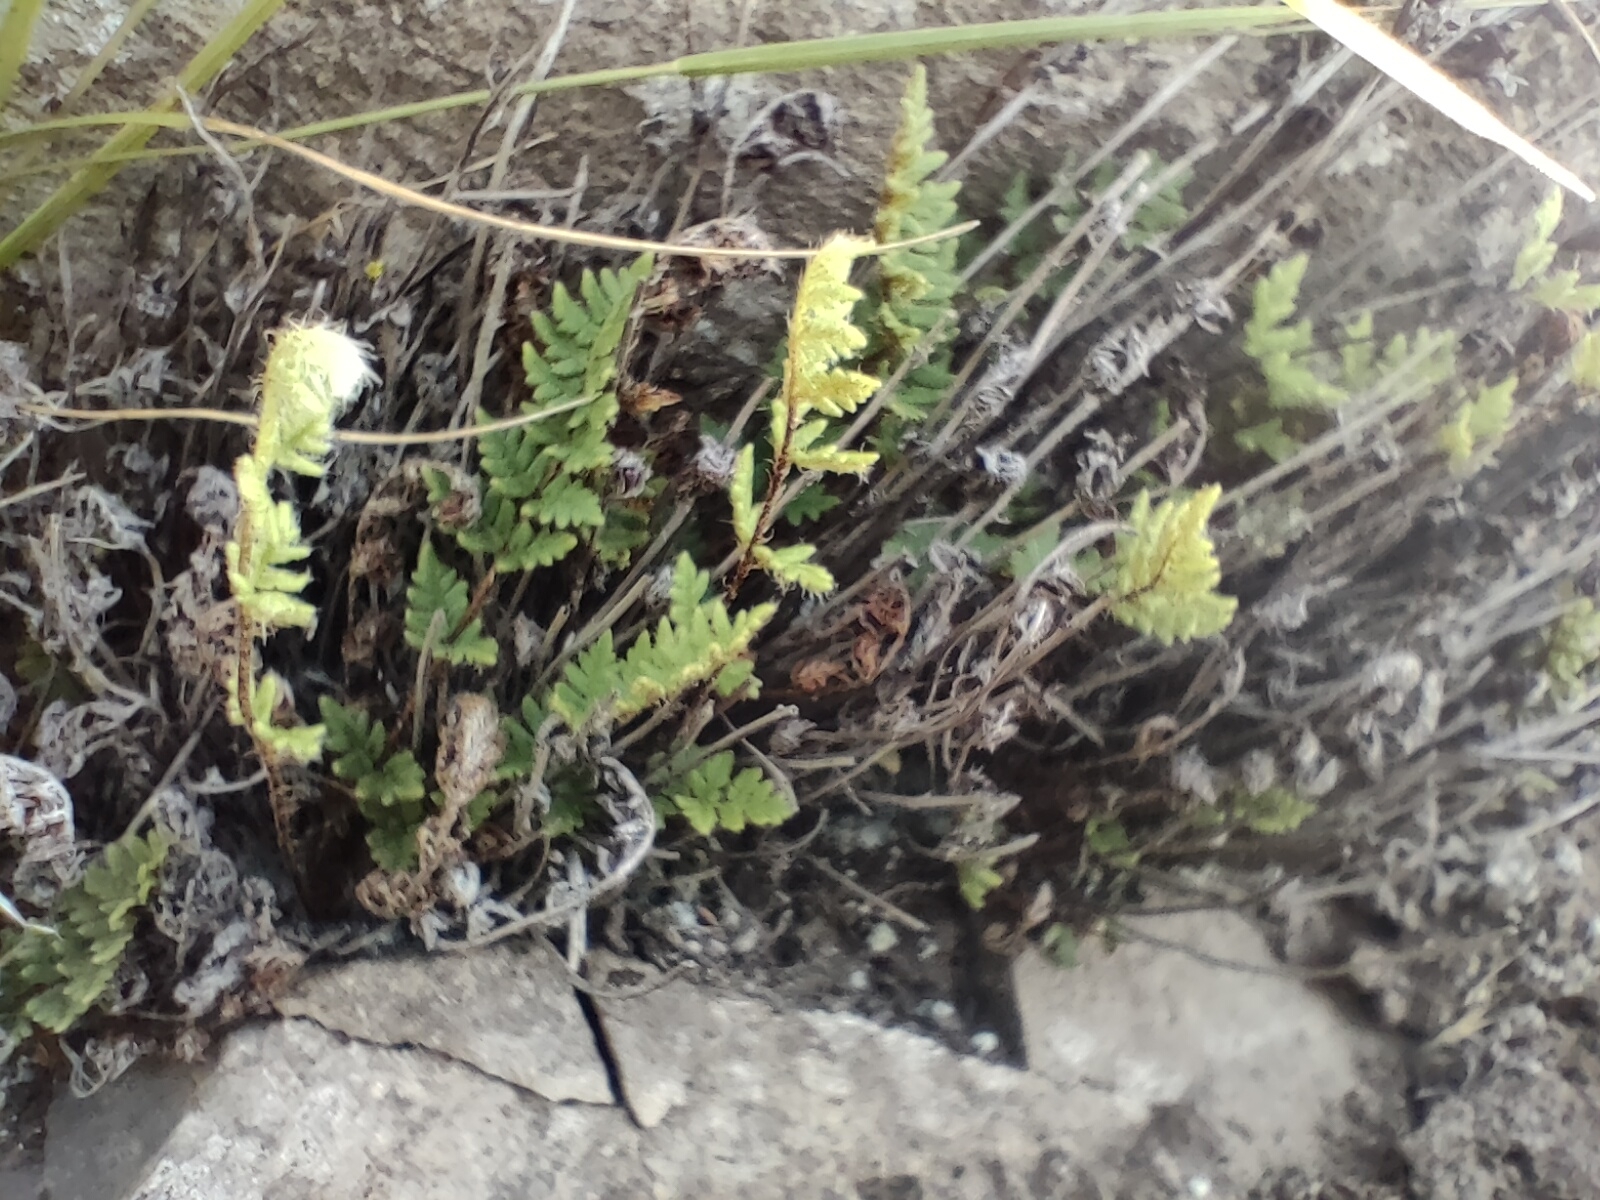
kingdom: Plantae
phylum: Tracheophyta
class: Polypodiopsida
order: Polypodiales
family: Pteridaceae
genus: Cheilanthes
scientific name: Cheilanthes
